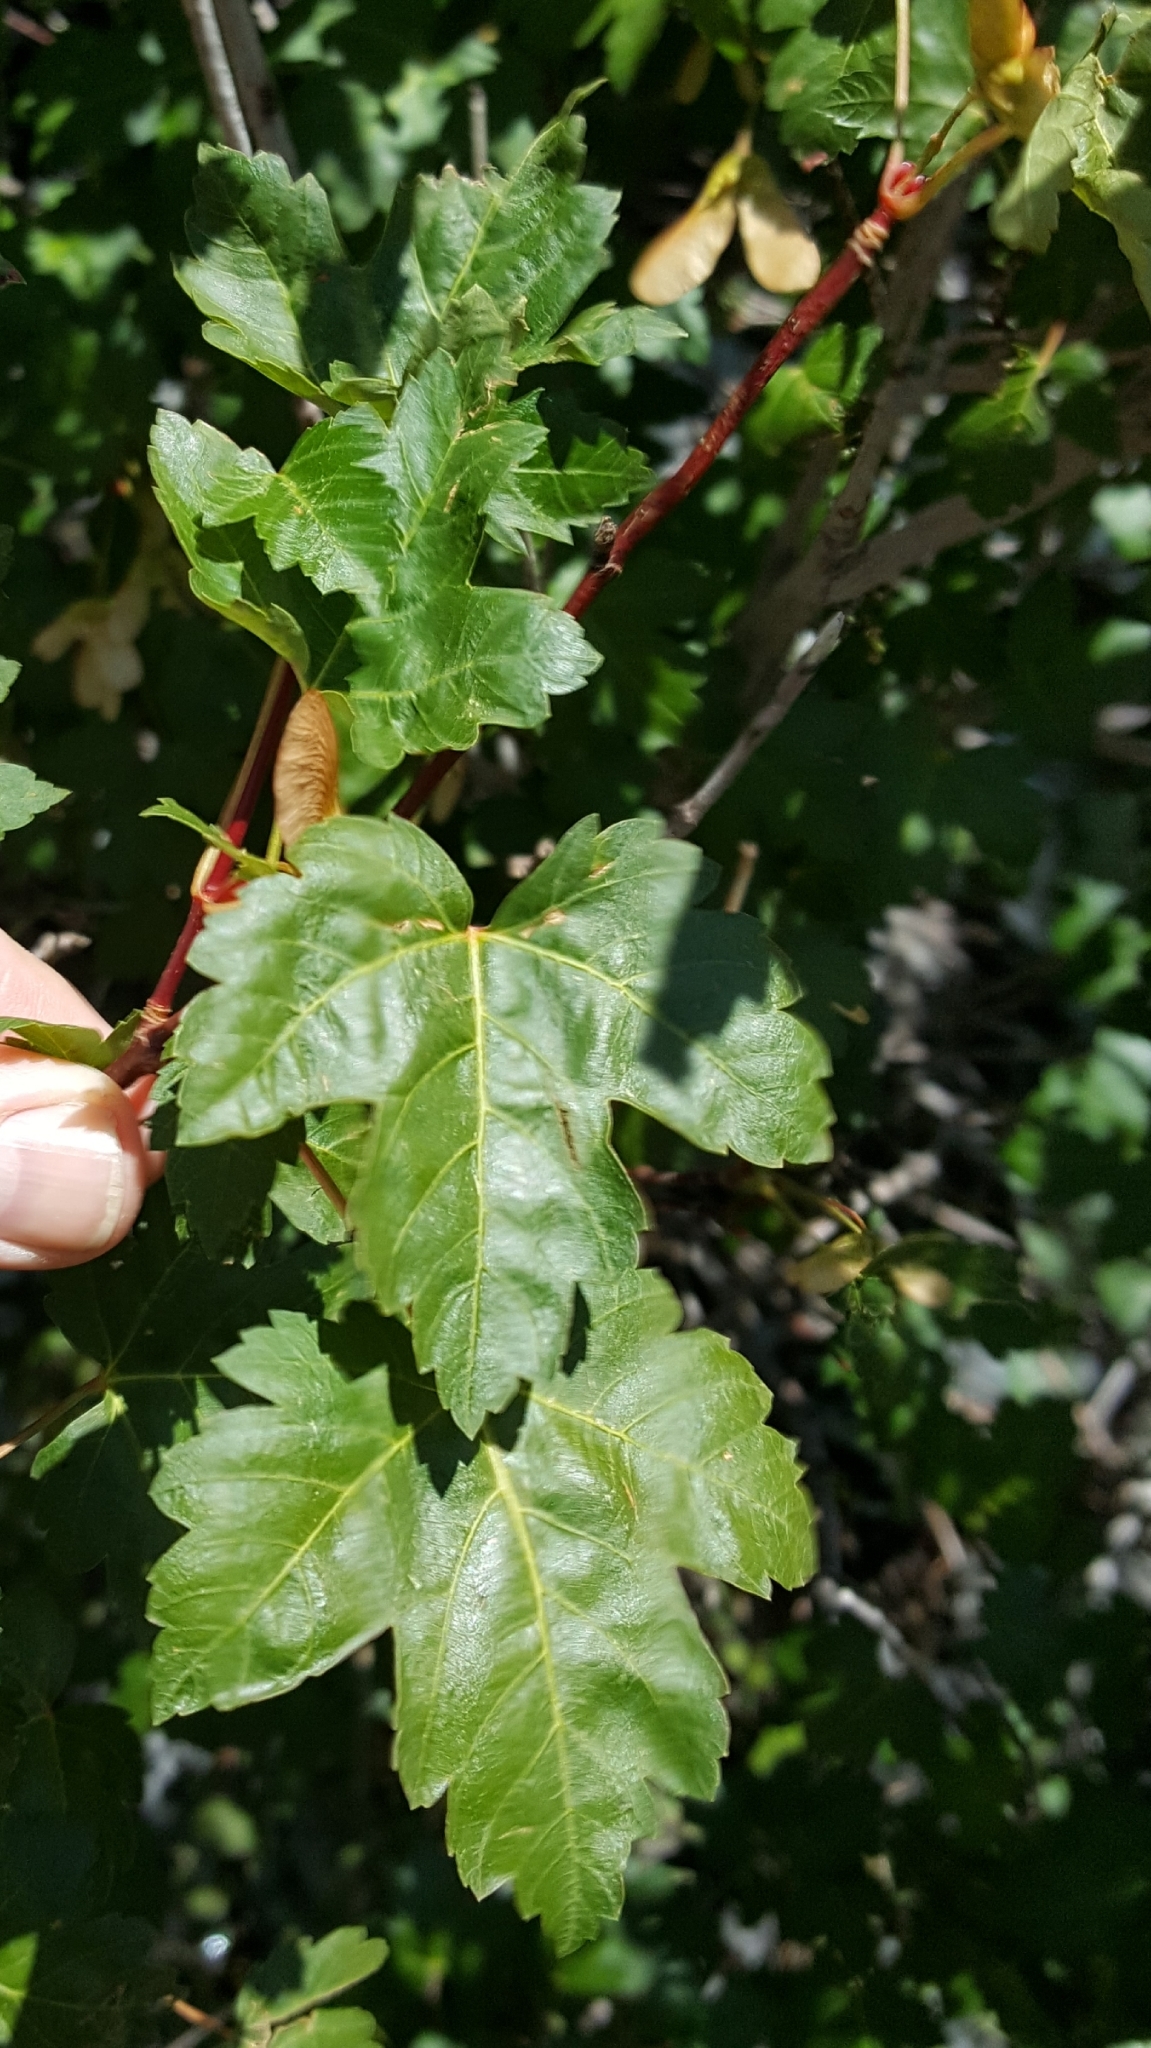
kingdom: Plantae
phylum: Tracheophyta
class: Magnoliopsida
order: Sapindales
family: Sapindaceae
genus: Acer
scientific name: Acer glabrum
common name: Rocky mountain maple
